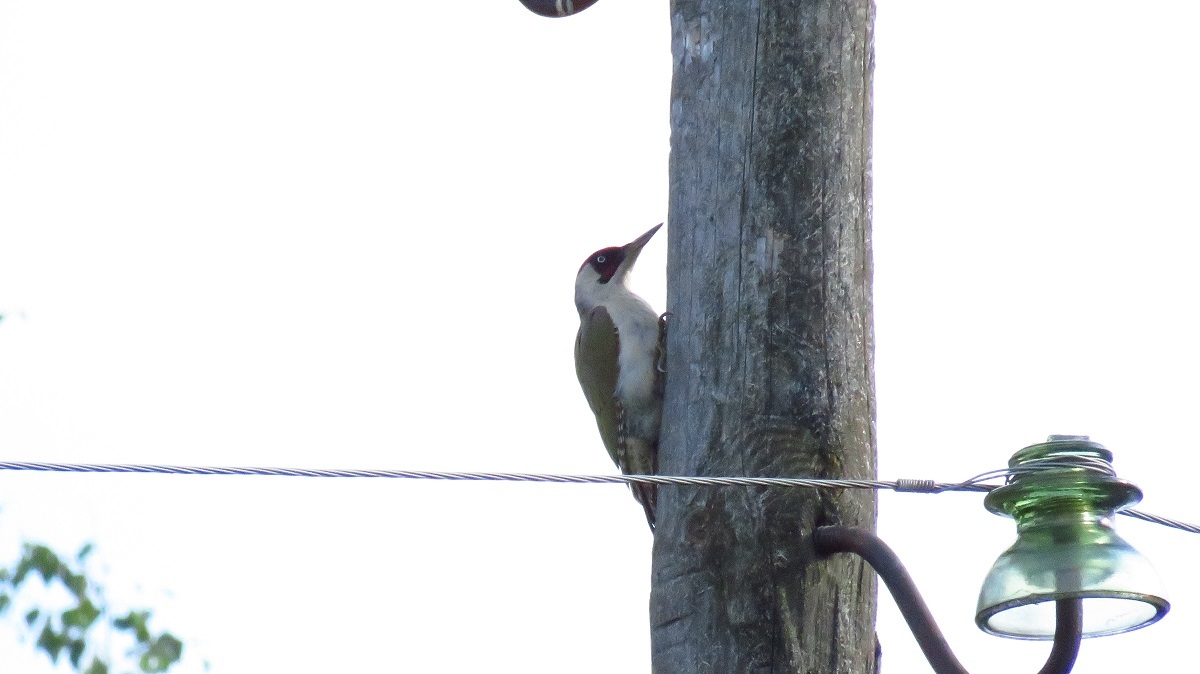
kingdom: Animalia
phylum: Chordata
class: Aves
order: Piciformes
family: Picidae
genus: Picus
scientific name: Picus viridis
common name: European green woodpecker
